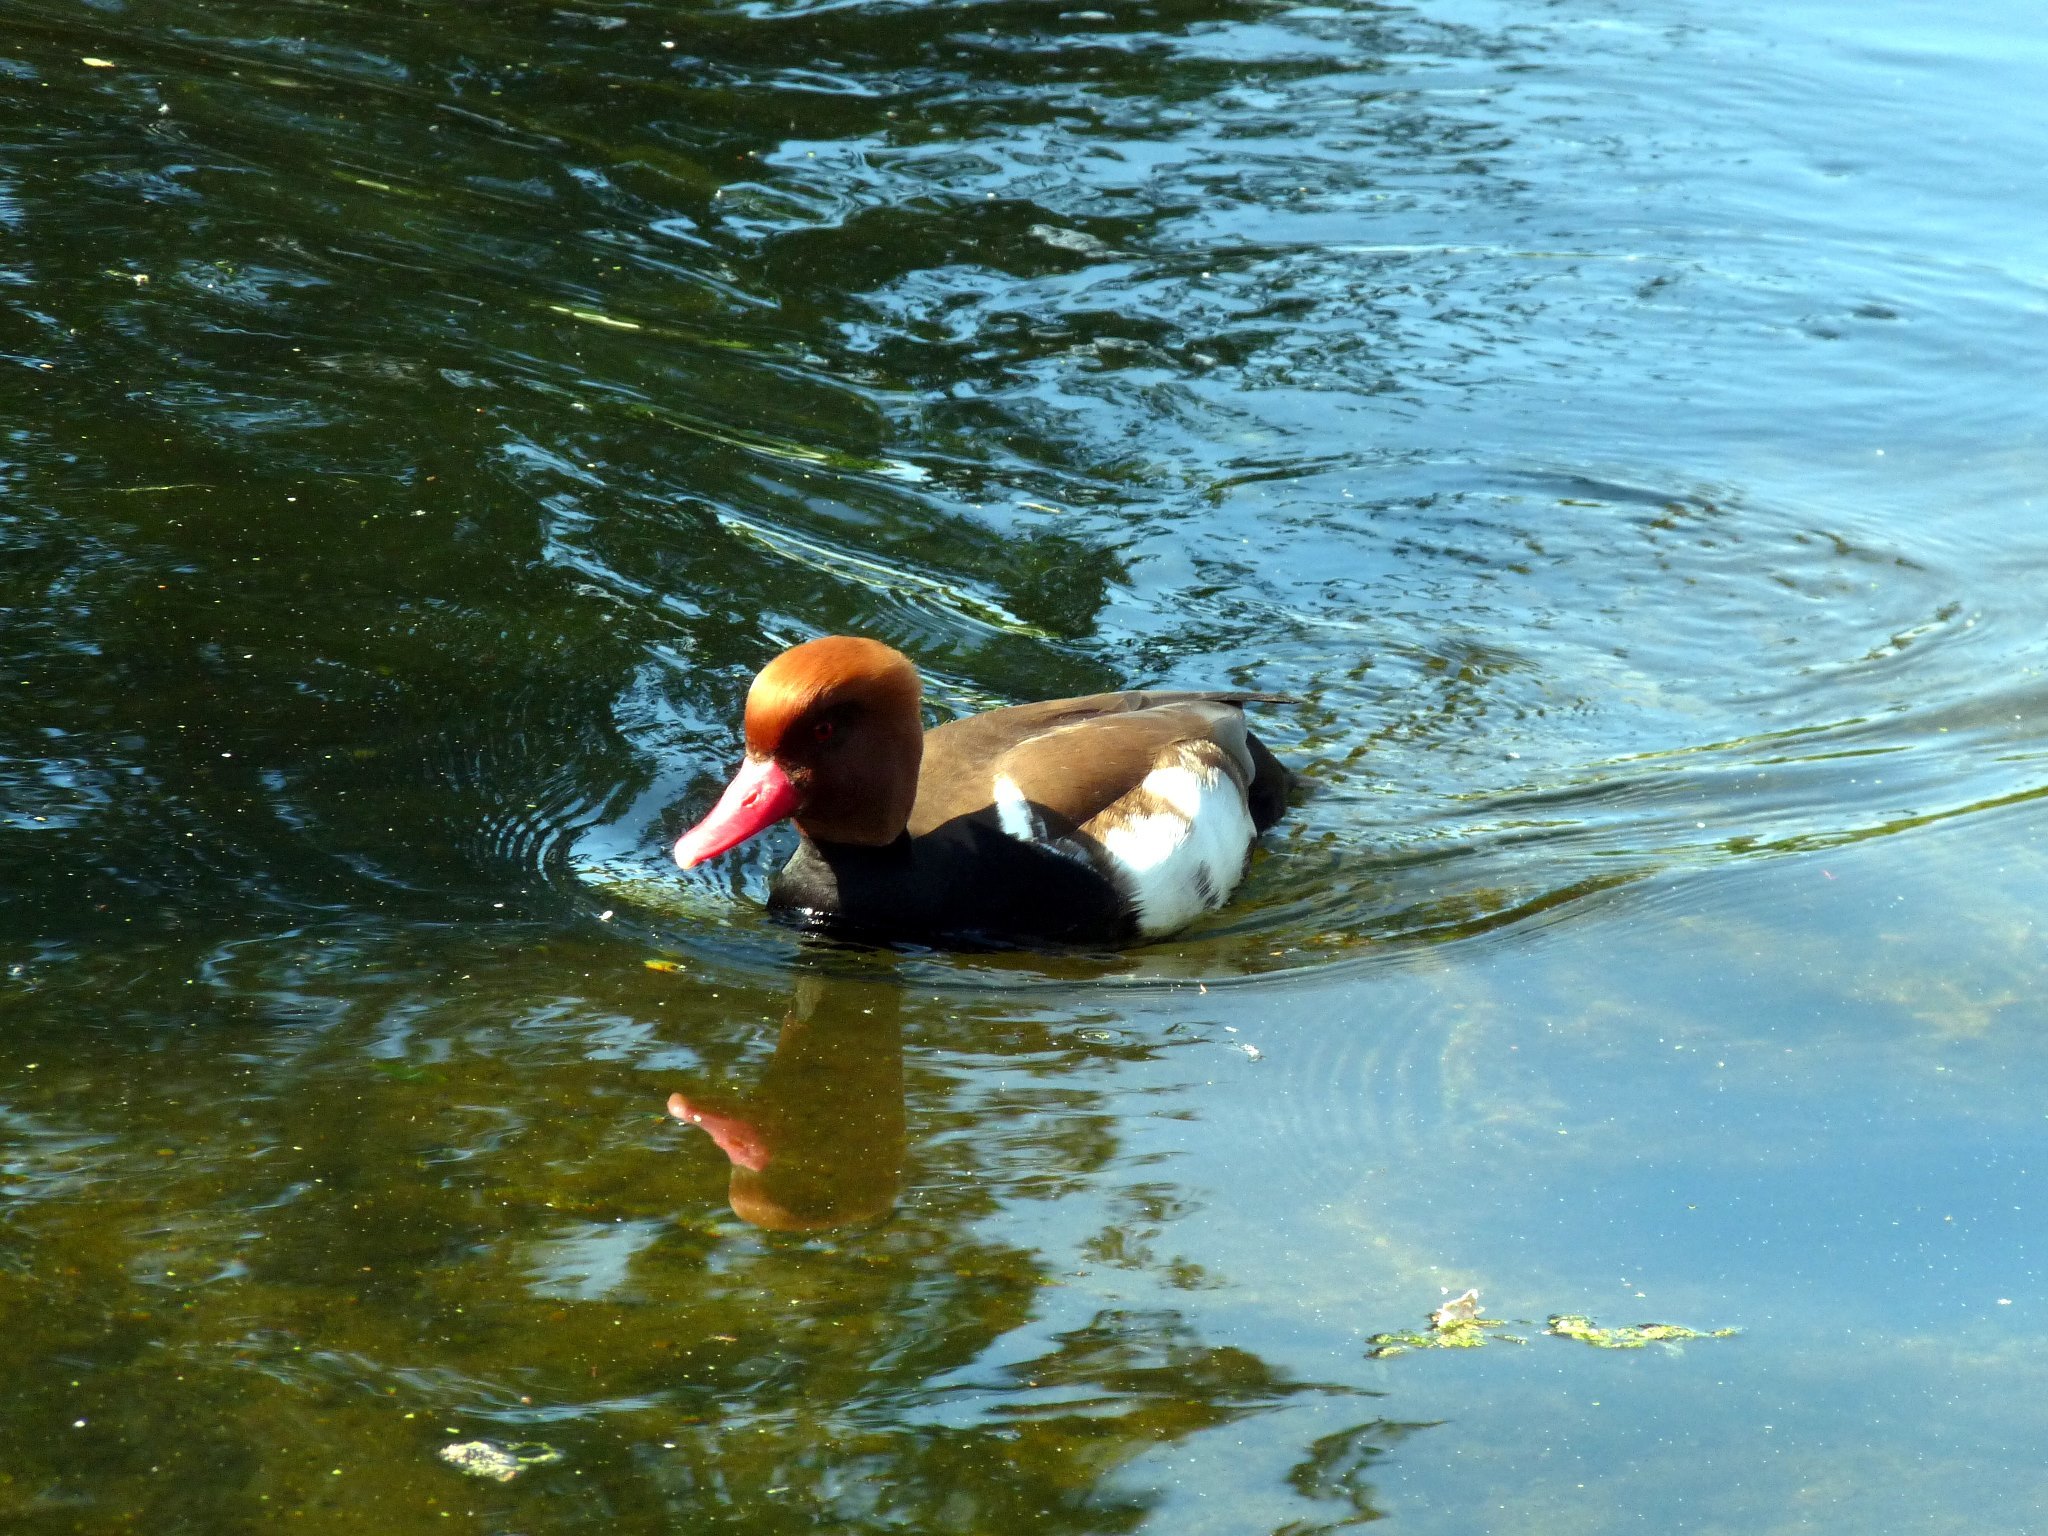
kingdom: Animalia
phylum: Chordata
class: Aves
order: Anseriformes
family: Anatidae
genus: Netta
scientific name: Netta rufina
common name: Red-crested pochard
